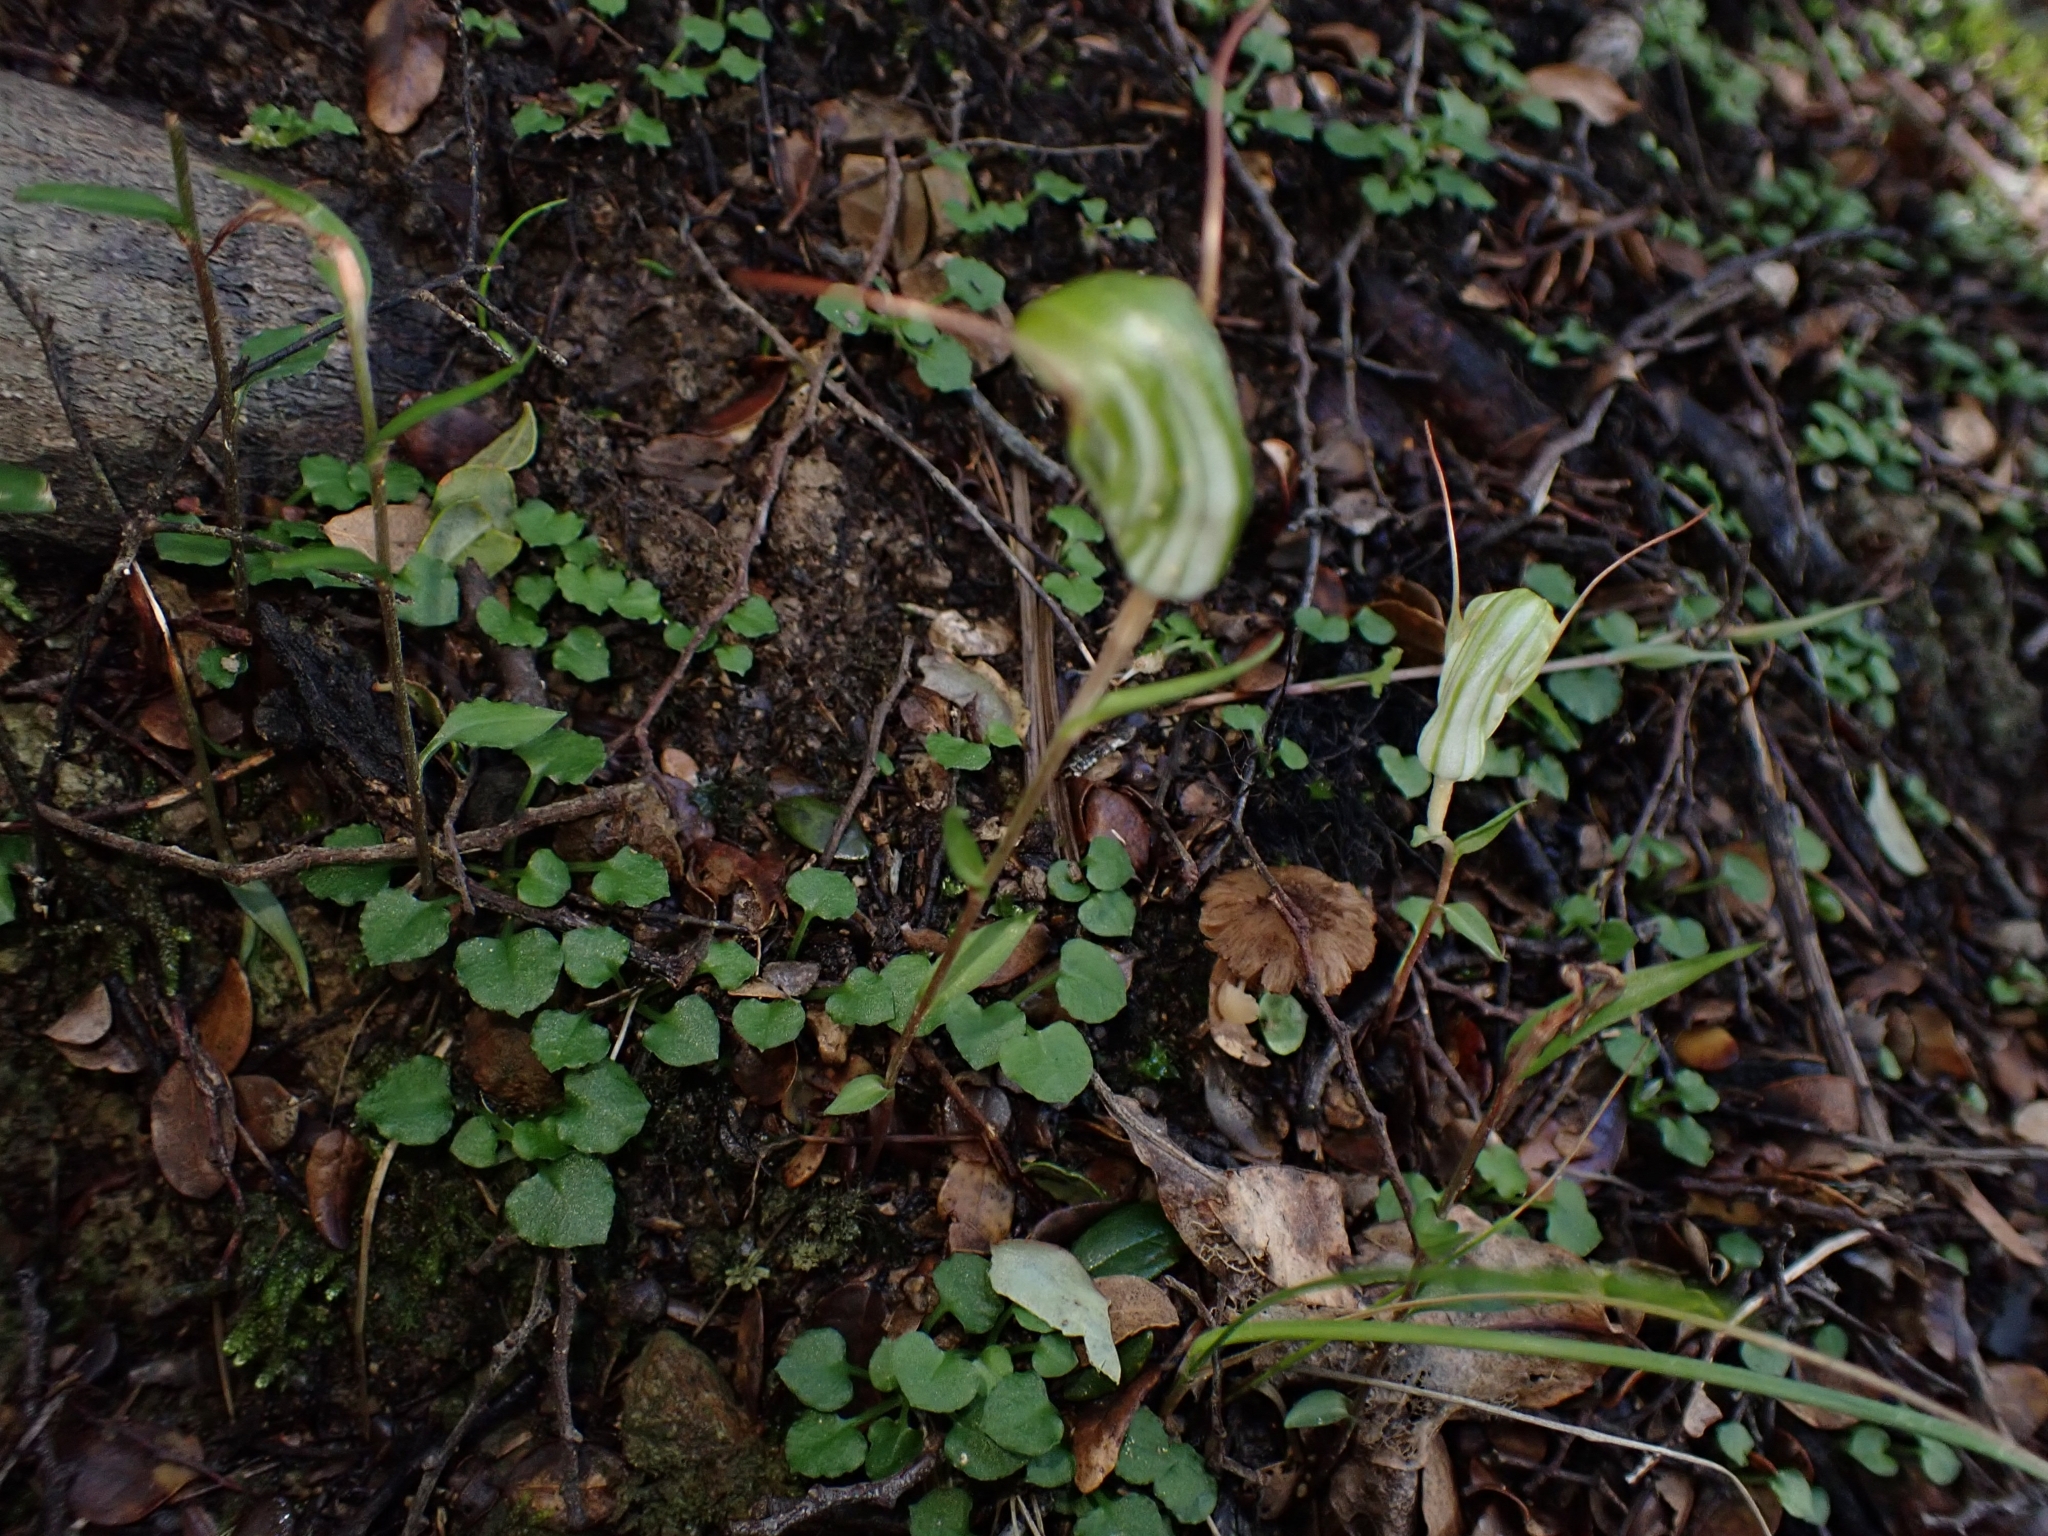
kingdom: Plantae
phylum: Tracheophyta
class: Liliopsida
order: Asparagales
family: Orchidaceae
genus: Pterostylis
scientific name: Pterostylis alobula
